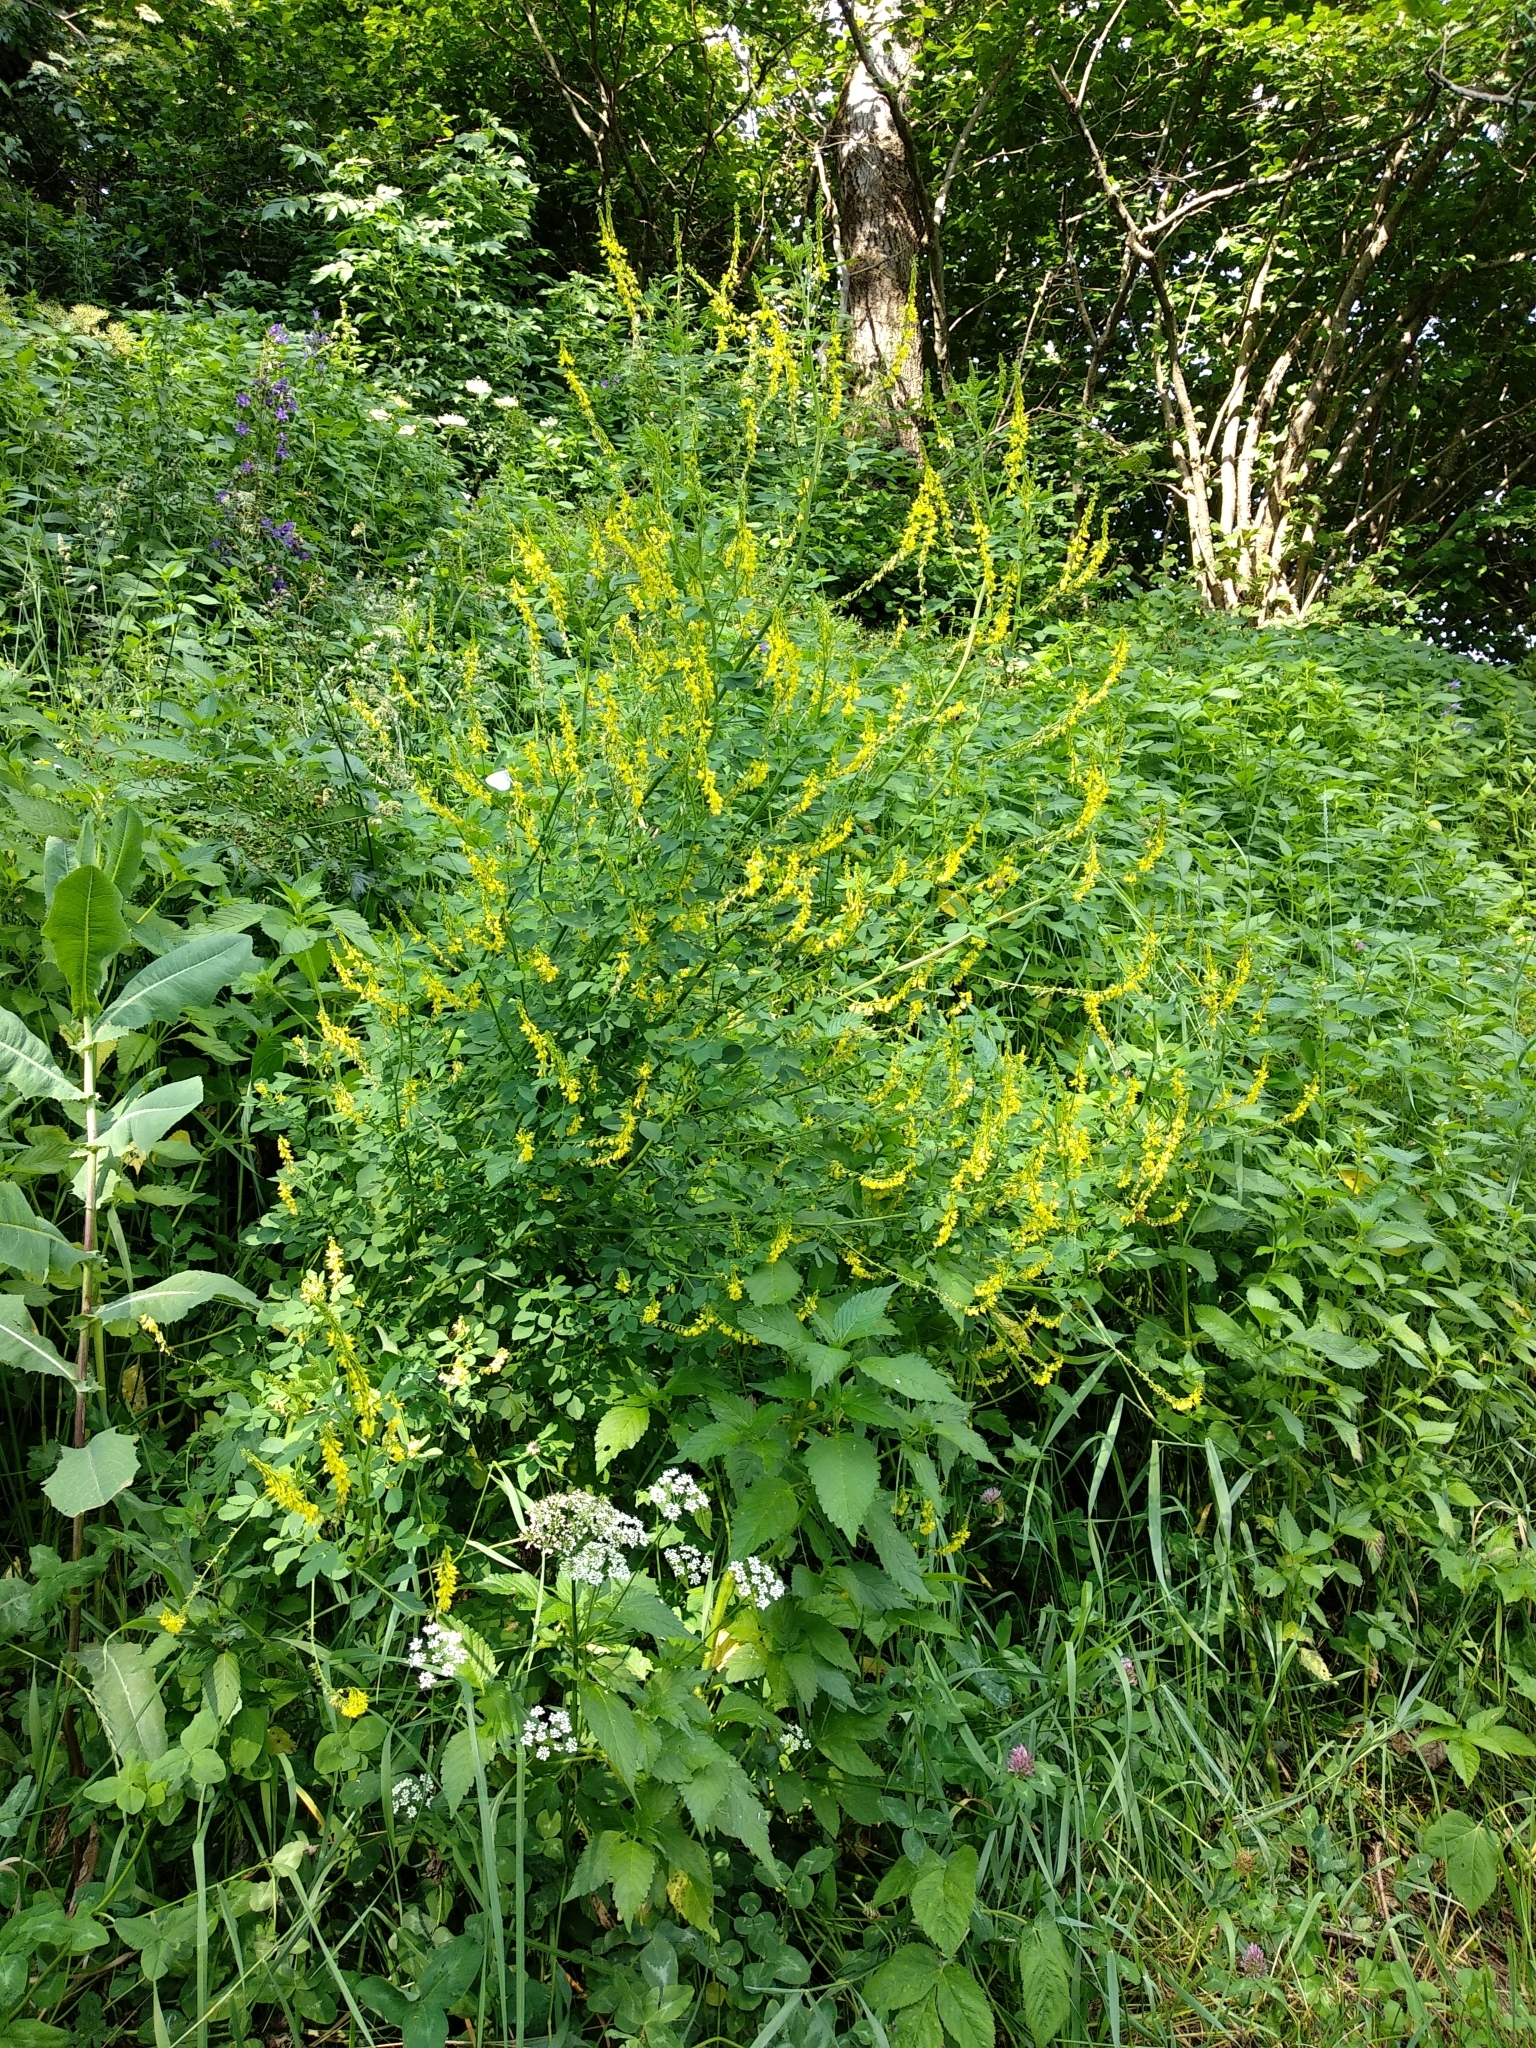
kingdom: Plantae
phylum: Tracheophyta
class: Magnoliopsida
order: Fabales
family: Fabaceae
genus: Melilotus
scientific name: Melilotus officinalis
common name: Sweetclover
